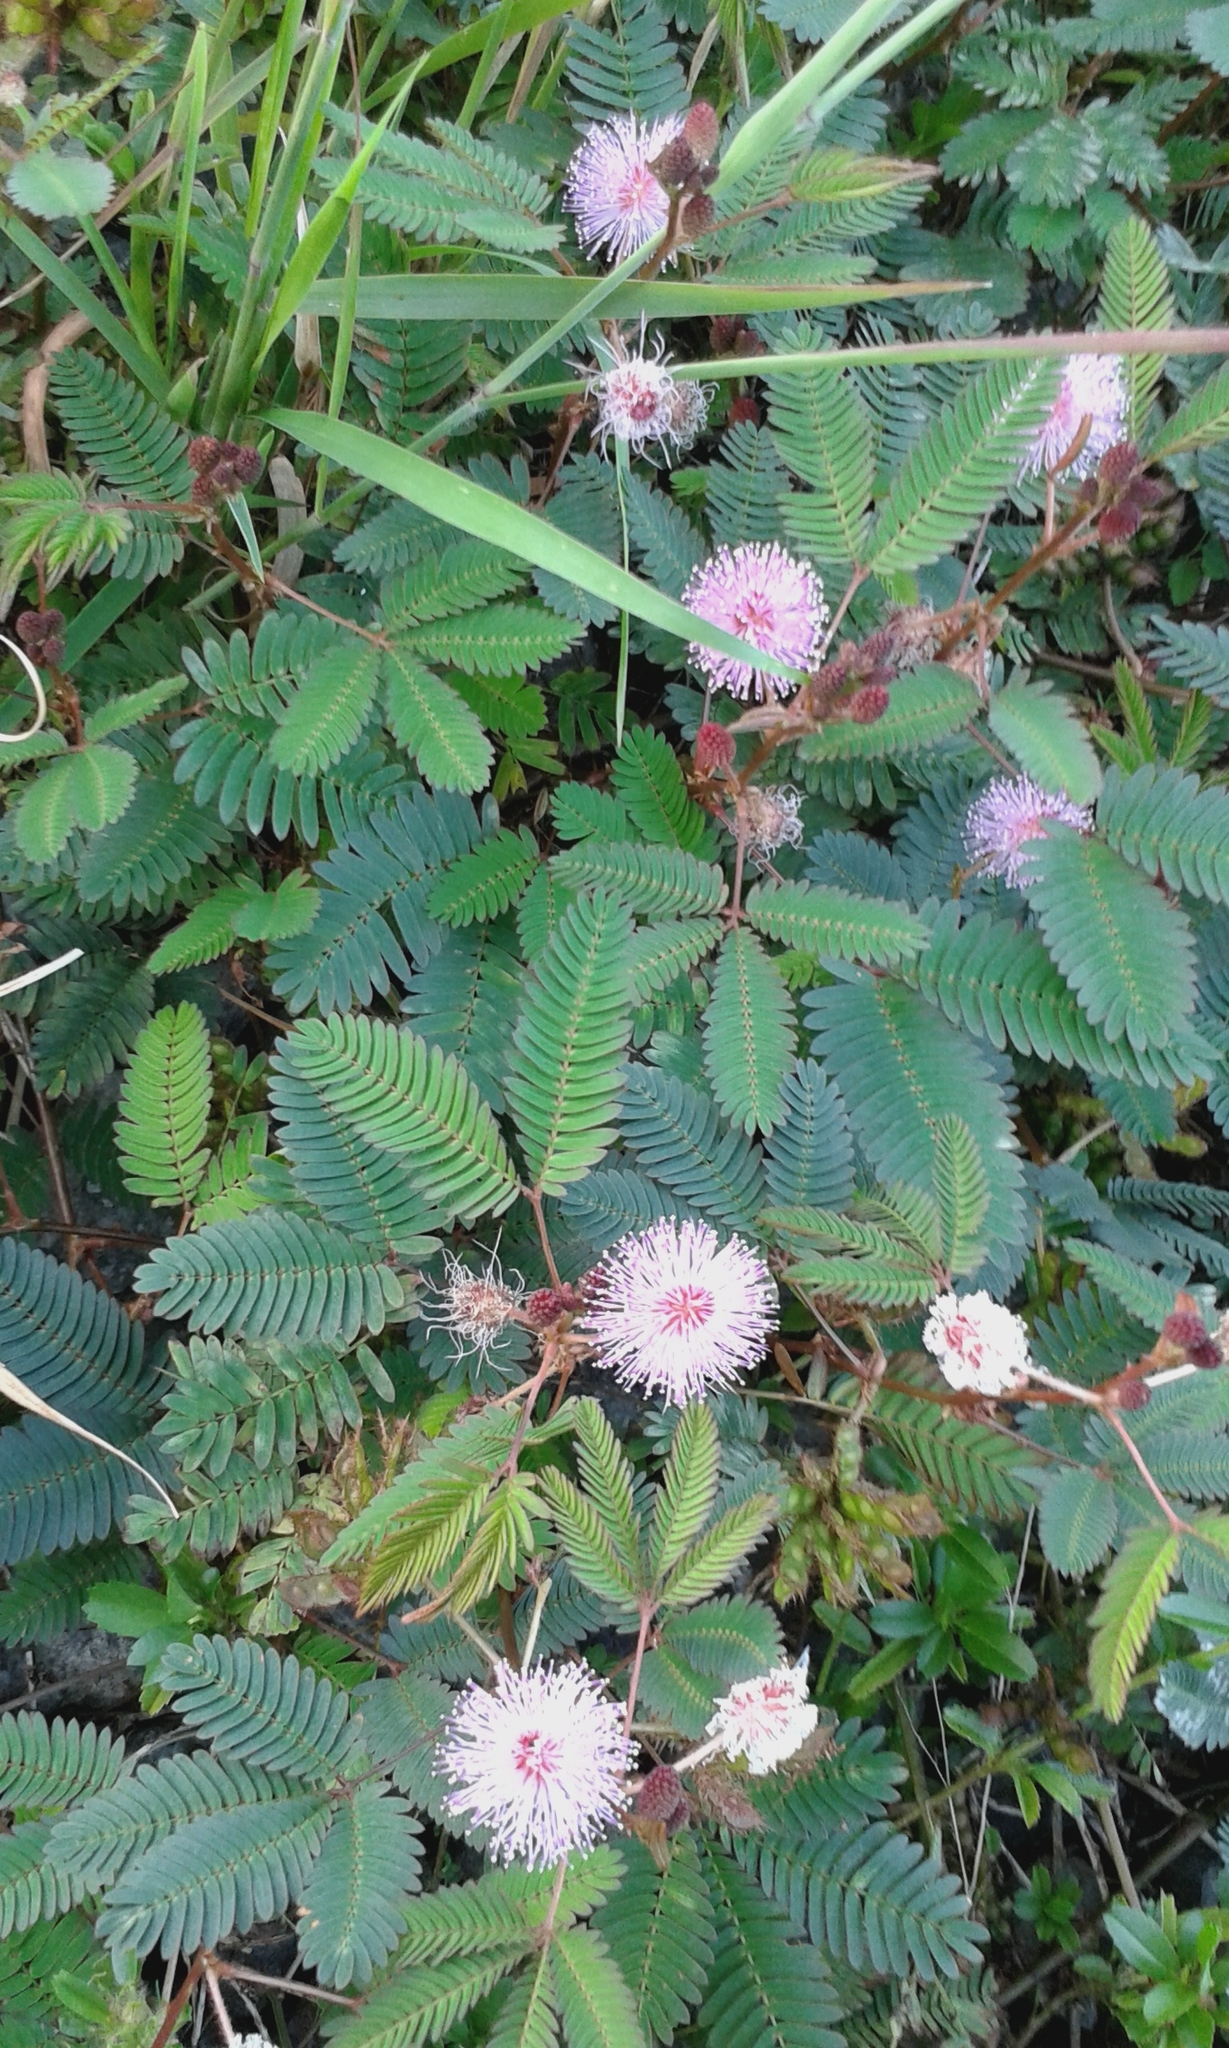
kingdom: Plantae
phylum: Tracheophyta
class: Magnoliopsida
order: Fabales
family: Fabaceae
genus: Mimosa
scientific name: Mimosa pudica
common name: Sensitive plant
